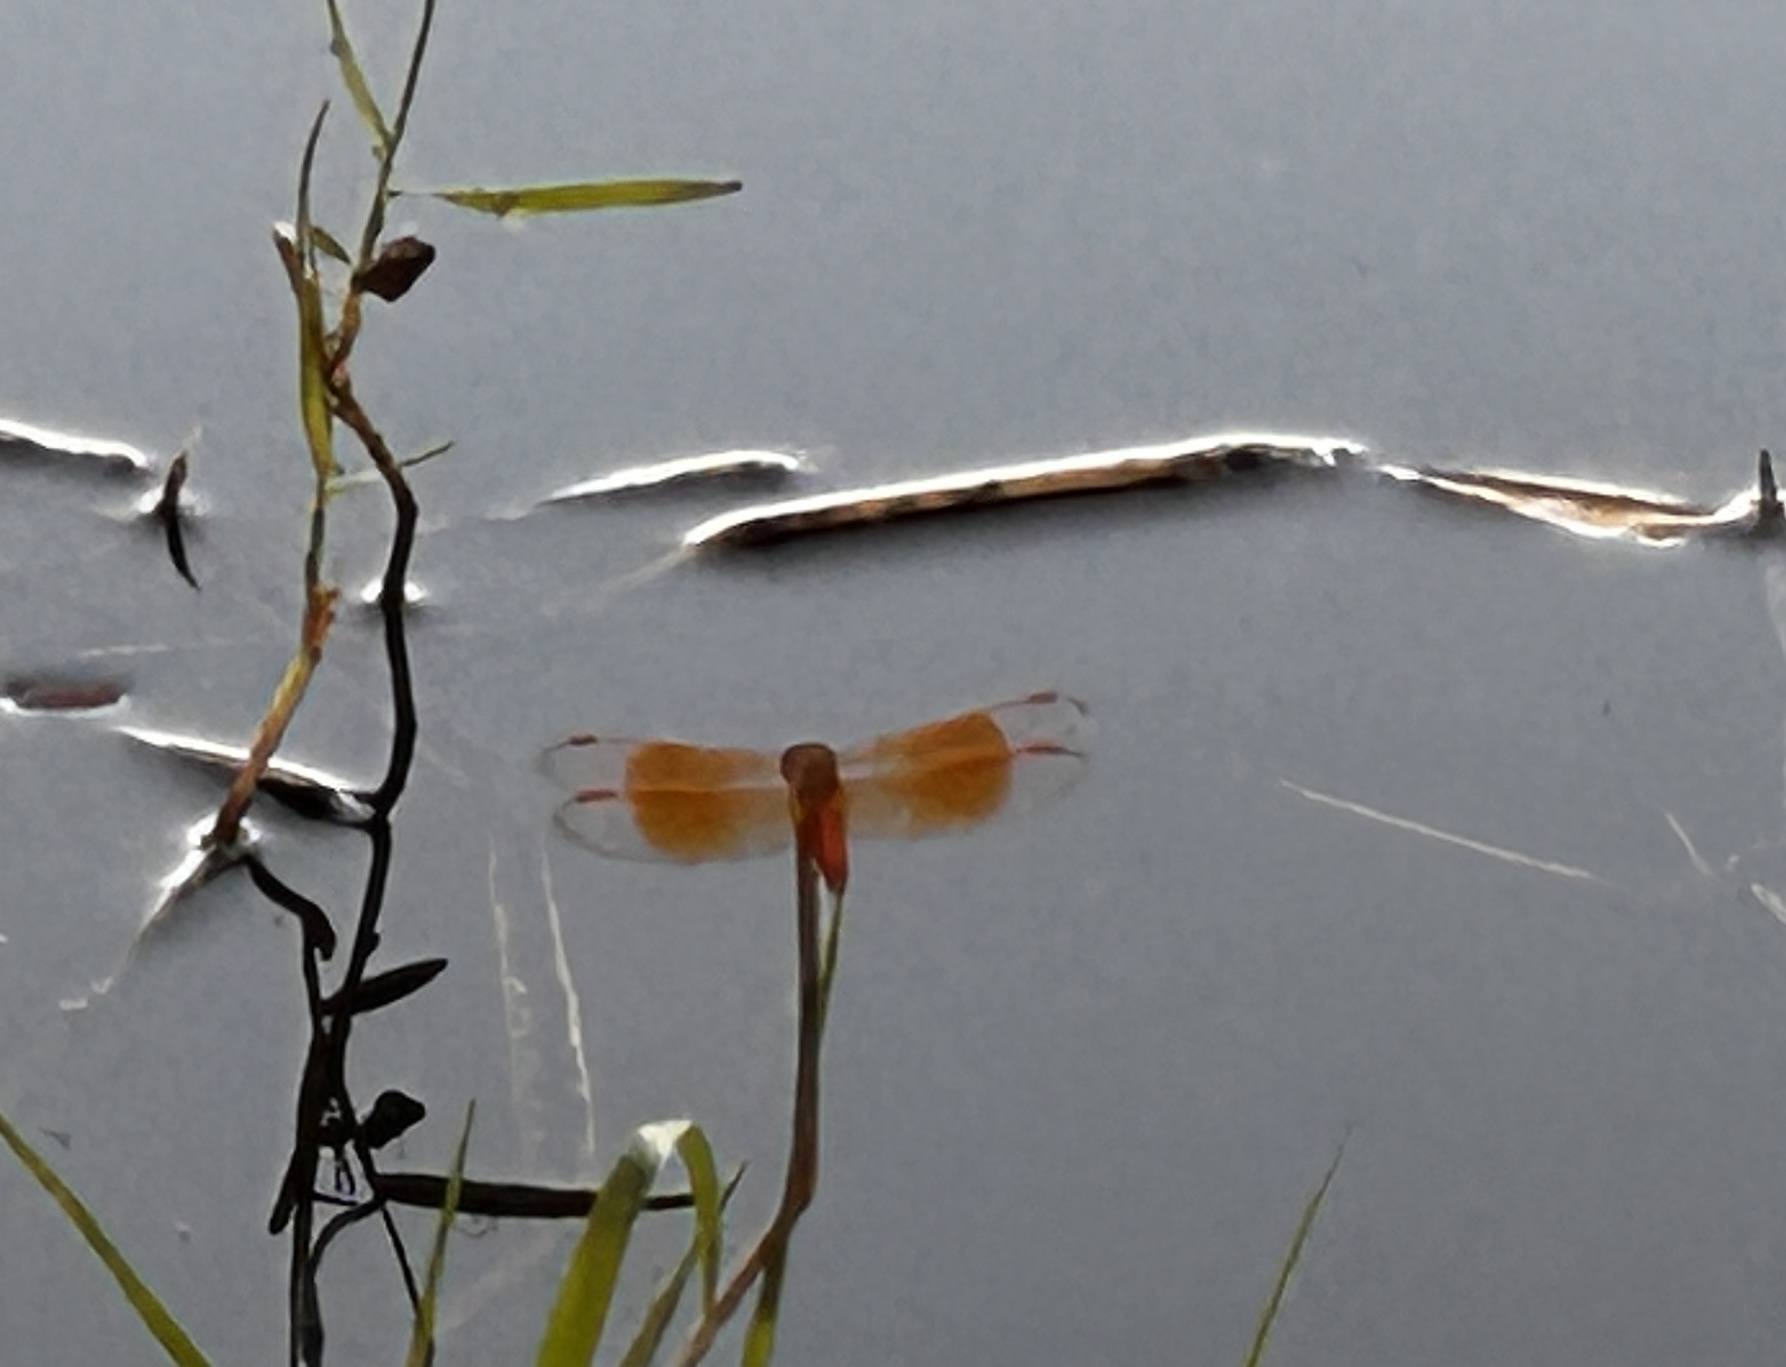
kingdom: Animalia
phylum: Arthropoda
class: Insecta
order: Odonata
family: Libellulidae
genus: Brachythemis
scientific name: Brachythemis contaminata
